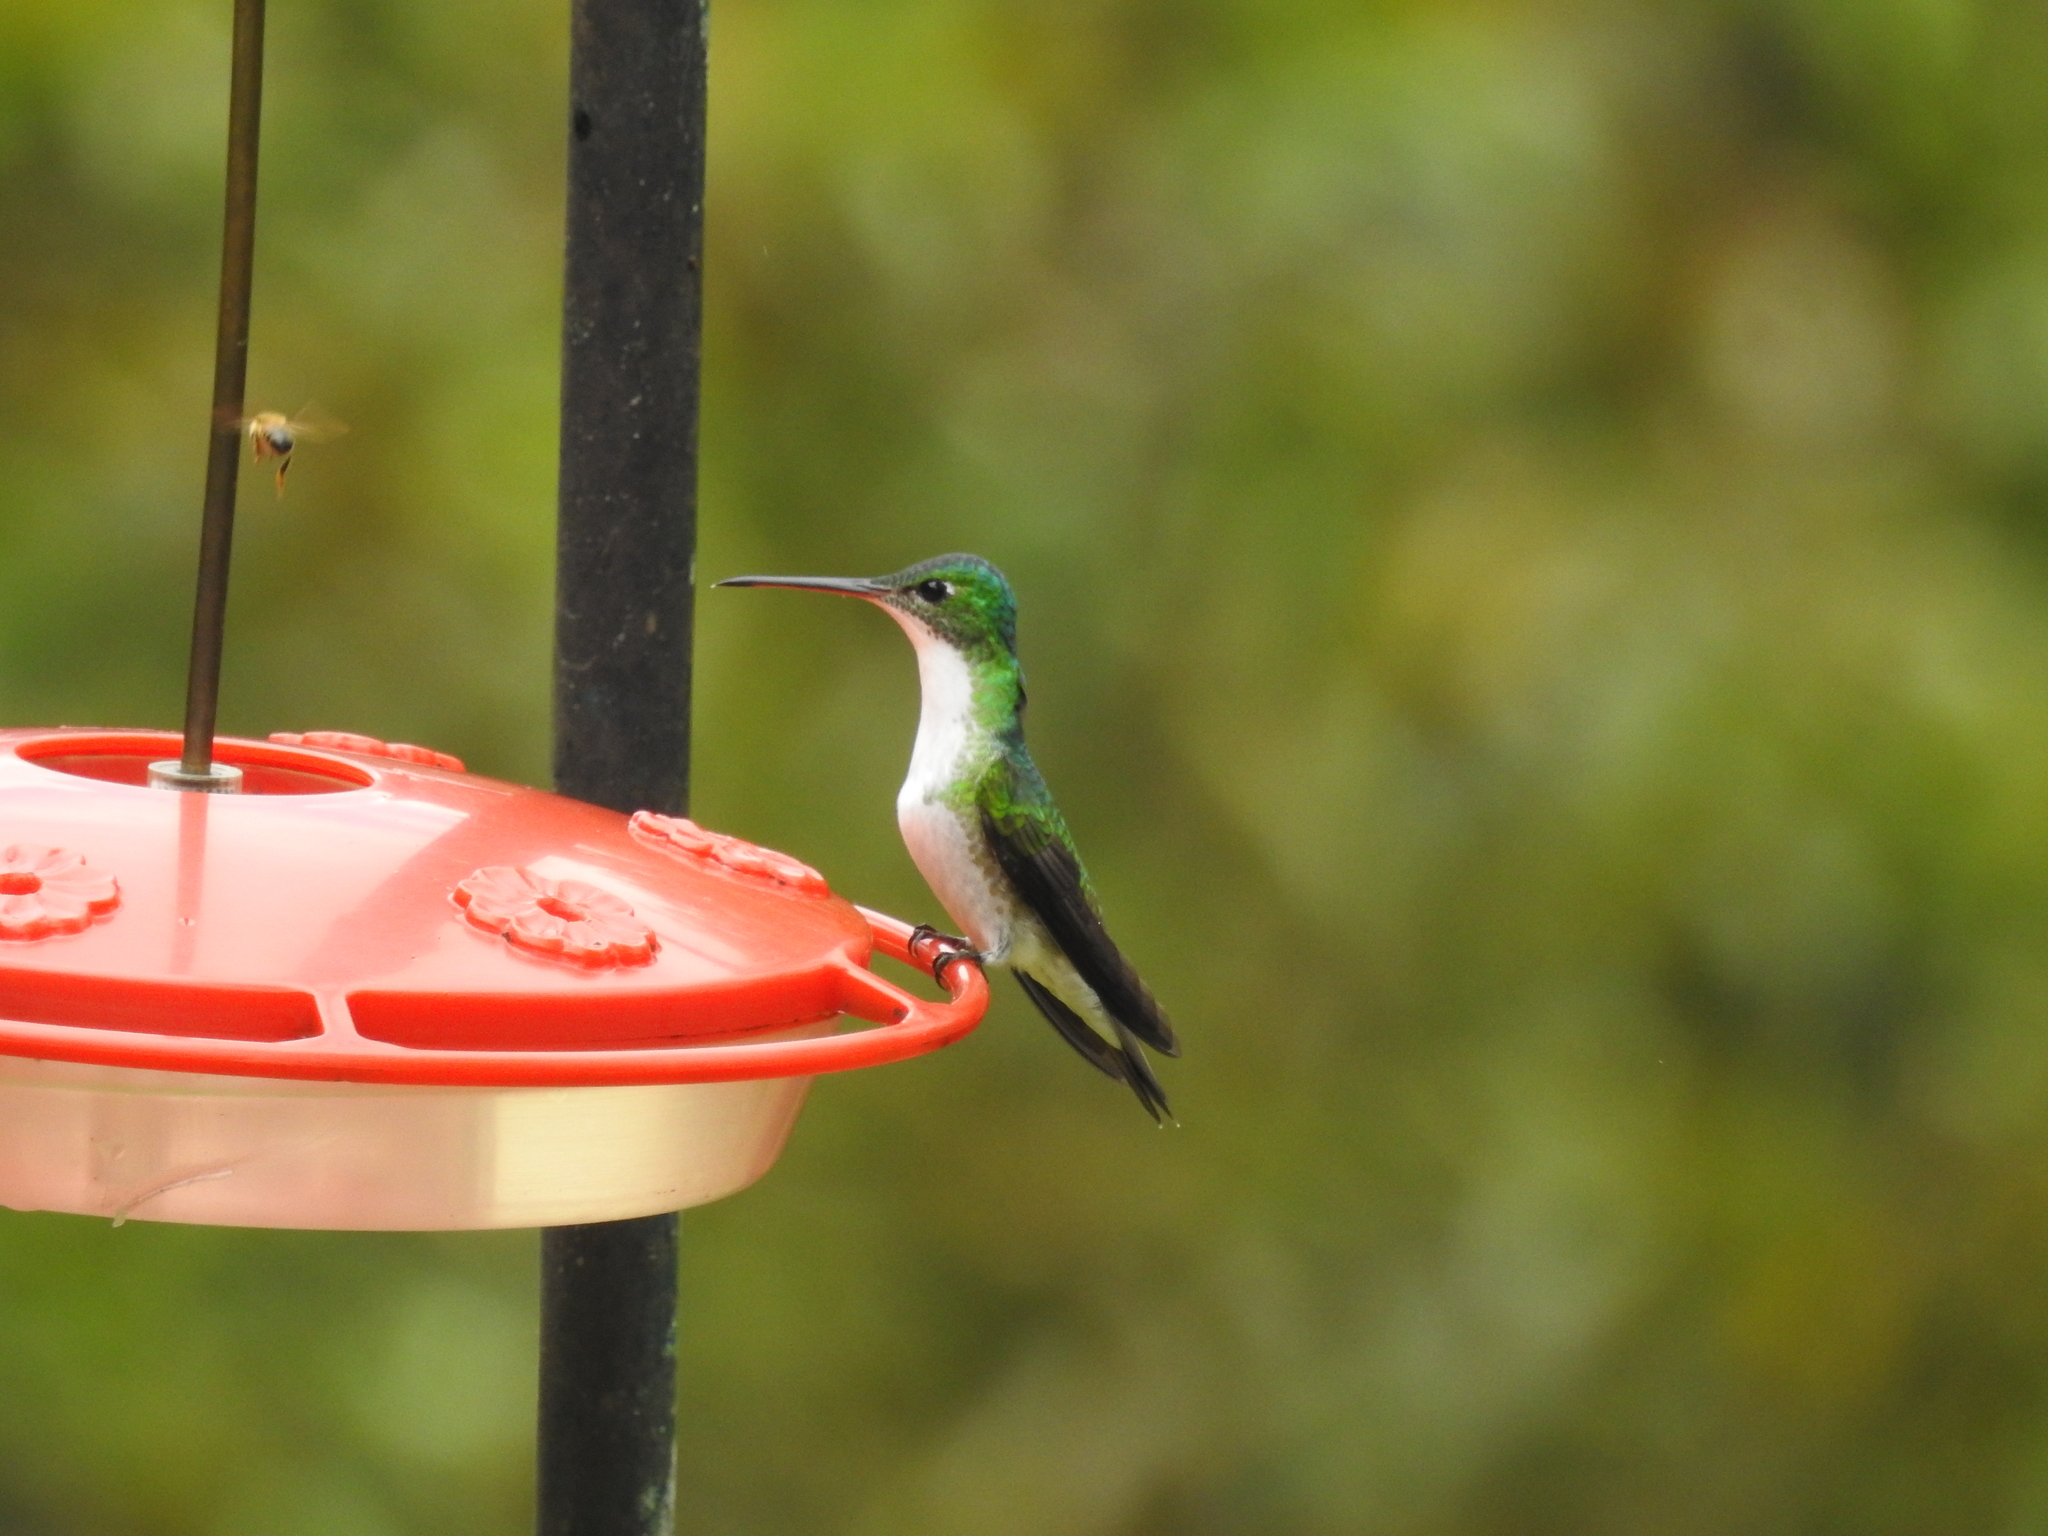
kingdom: Animalia
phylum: Chordata
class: Aves
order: Apodiformes
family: Trochilidae
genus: Uranomitra
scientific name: Uranomitra franciae
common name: Andean emerald
